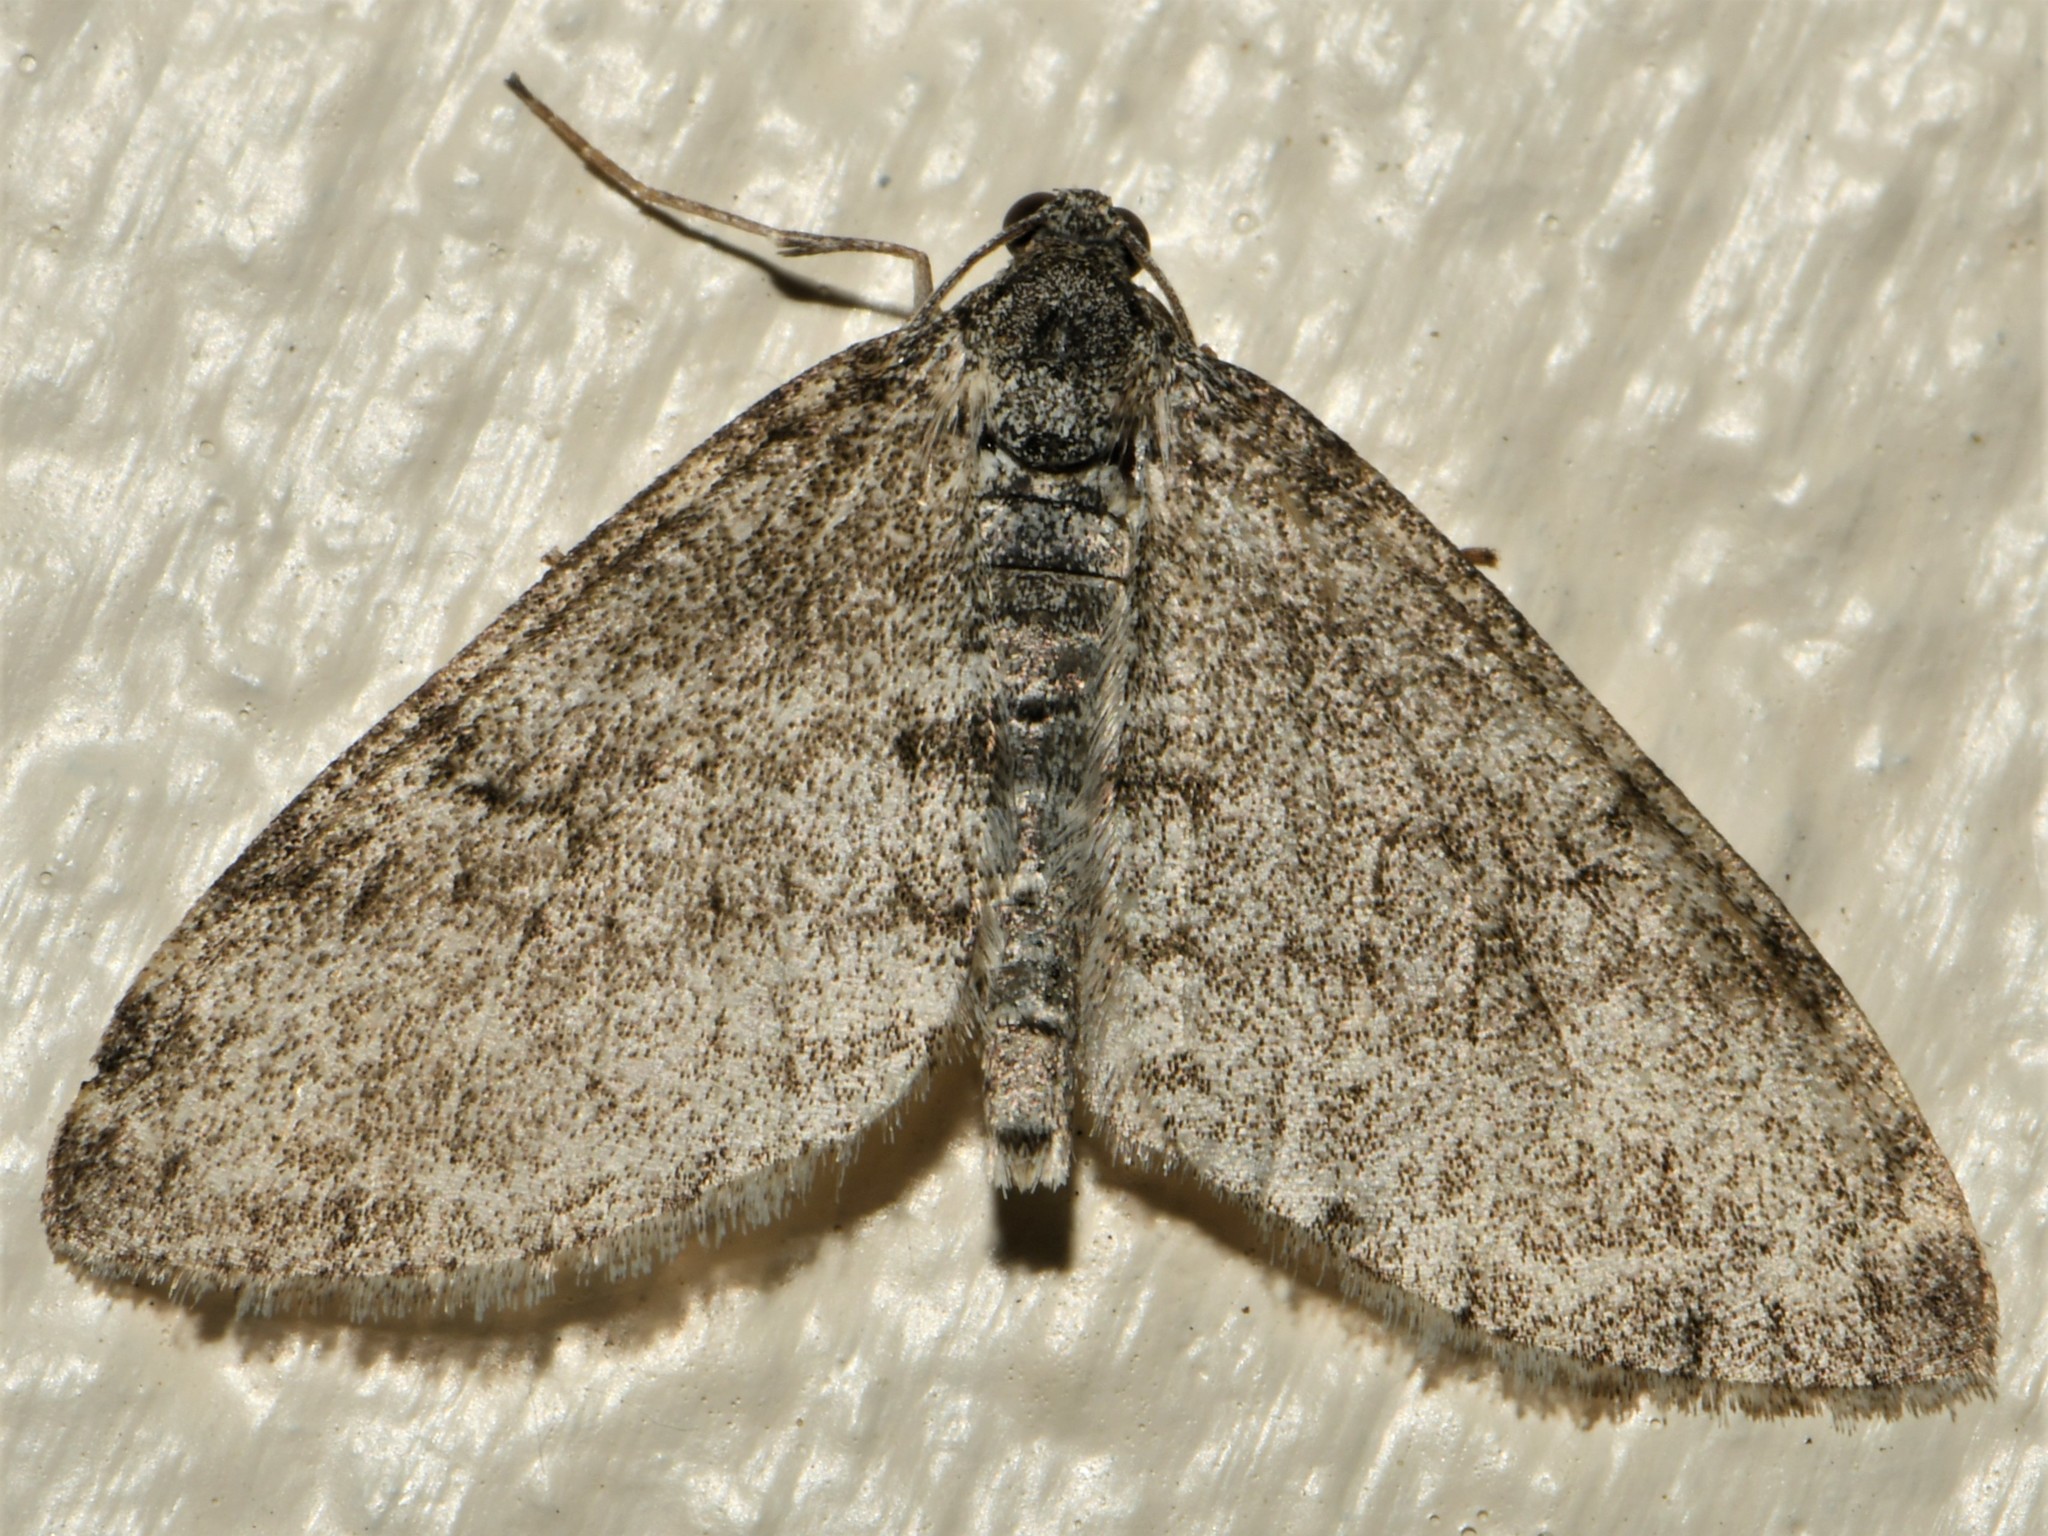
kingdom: Animalia
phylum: Arthropoda
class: Insecta
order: Lepidoptera
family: Geometridae
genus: Lobophora
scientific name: Lobophora halterata
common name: Seraphim
